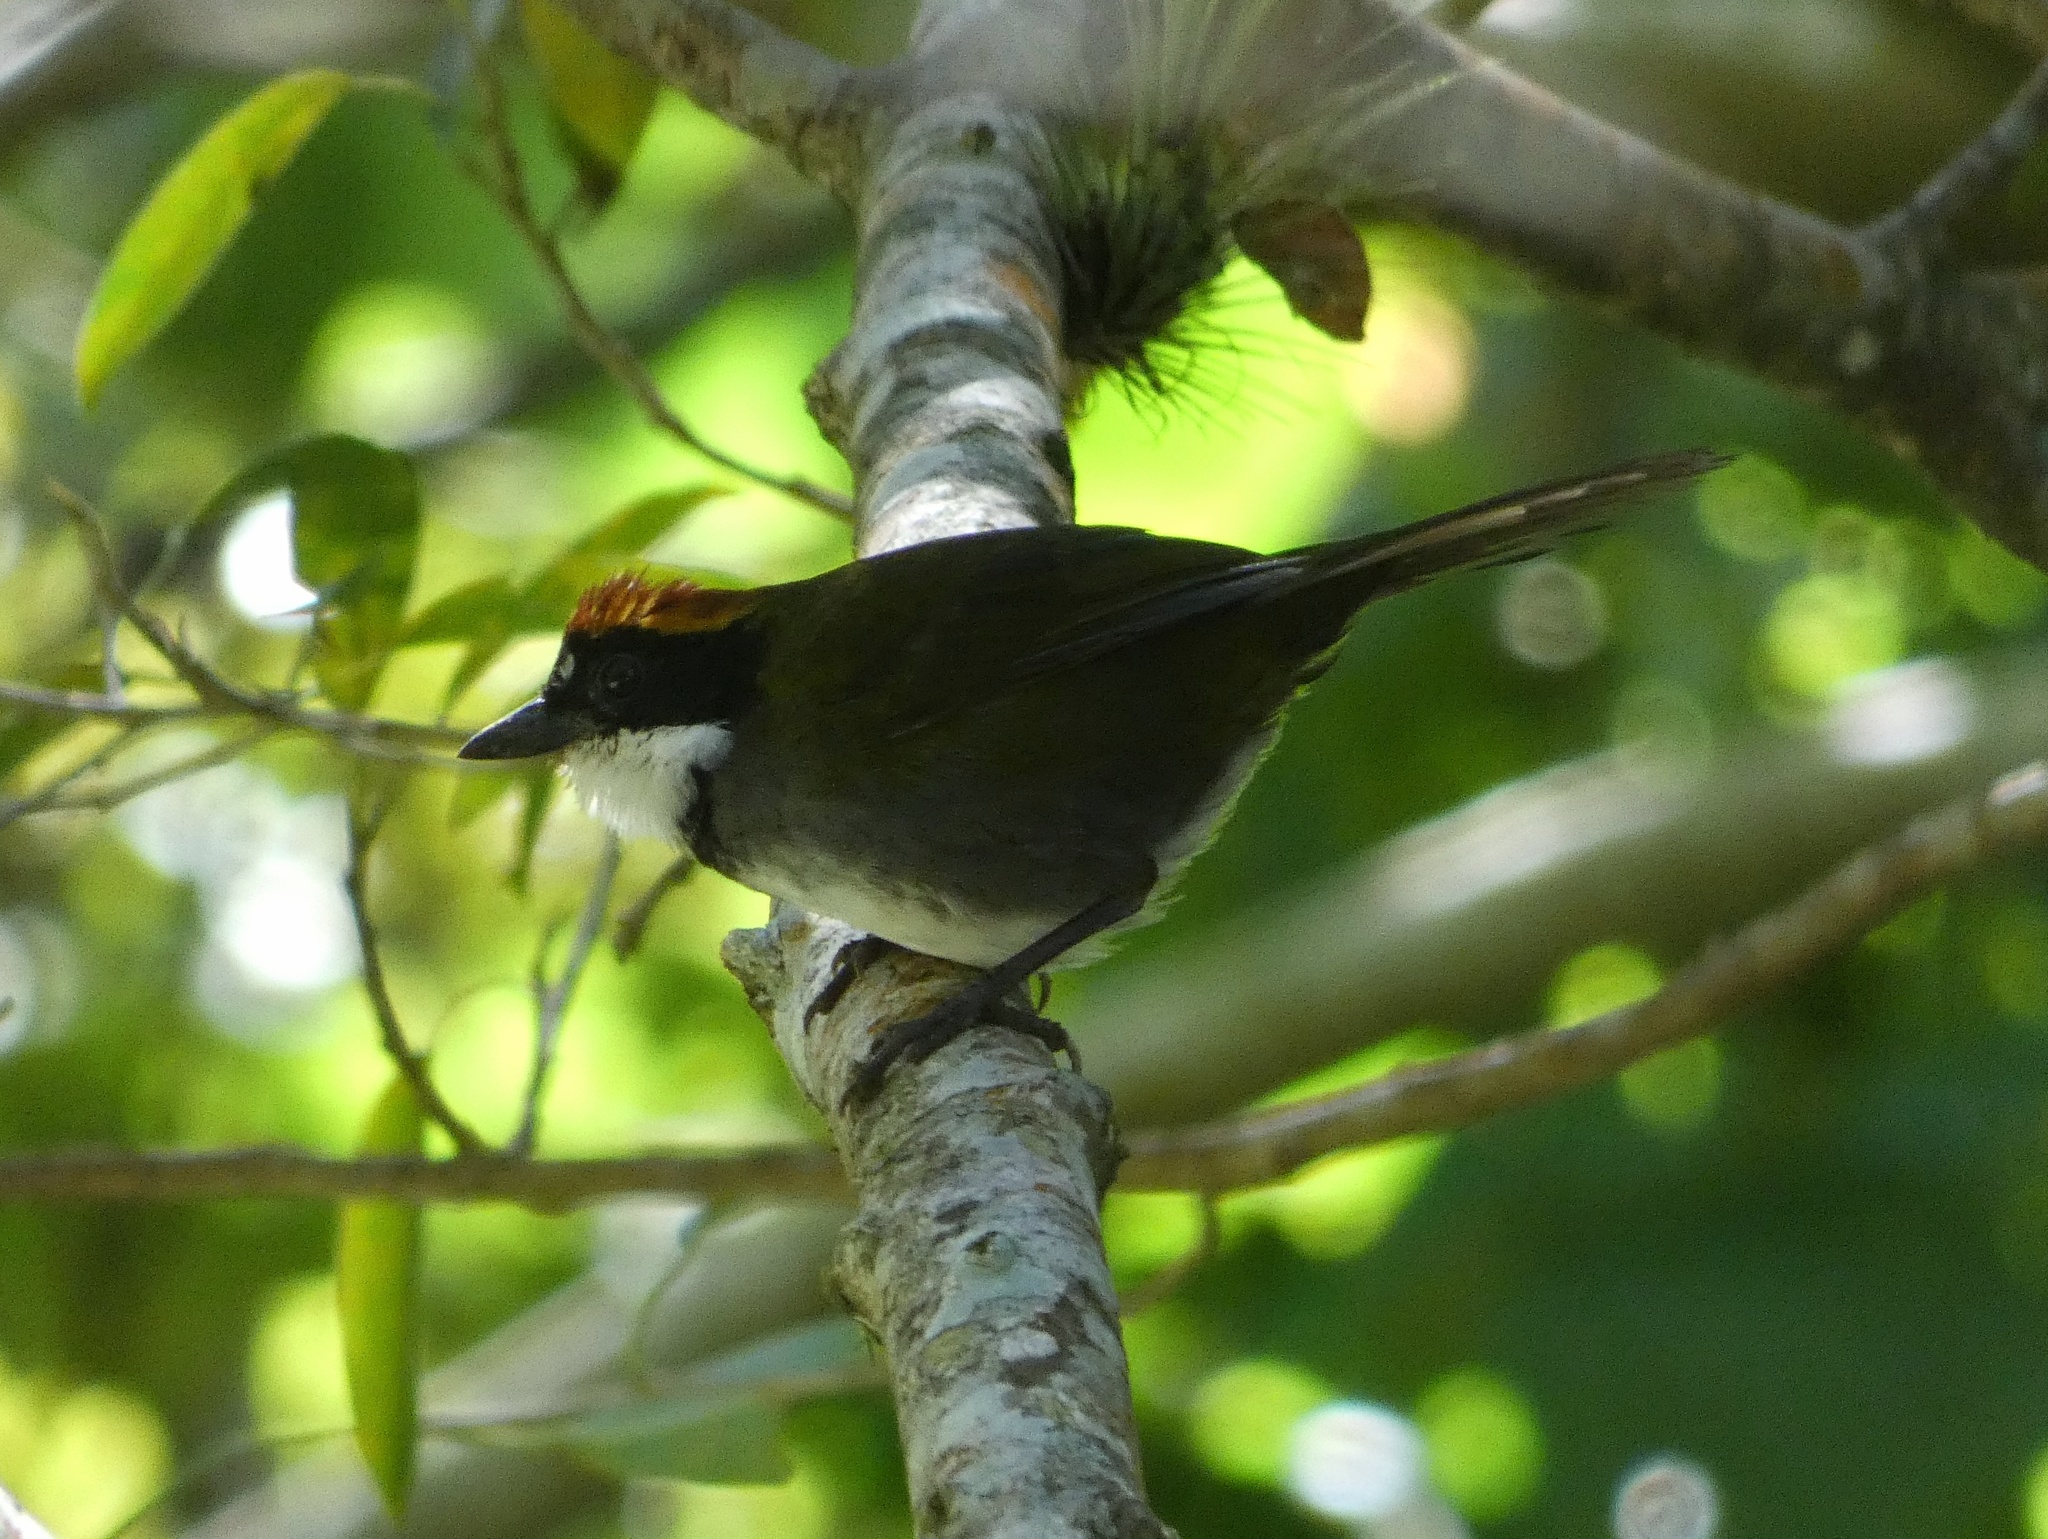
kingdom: Animalia
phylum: Chordata
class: Aves
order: Passeriformes
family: Passerellidae
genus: Arremon
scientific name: Arremon brunneinucha
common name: Chestnut-capped brushfinch
